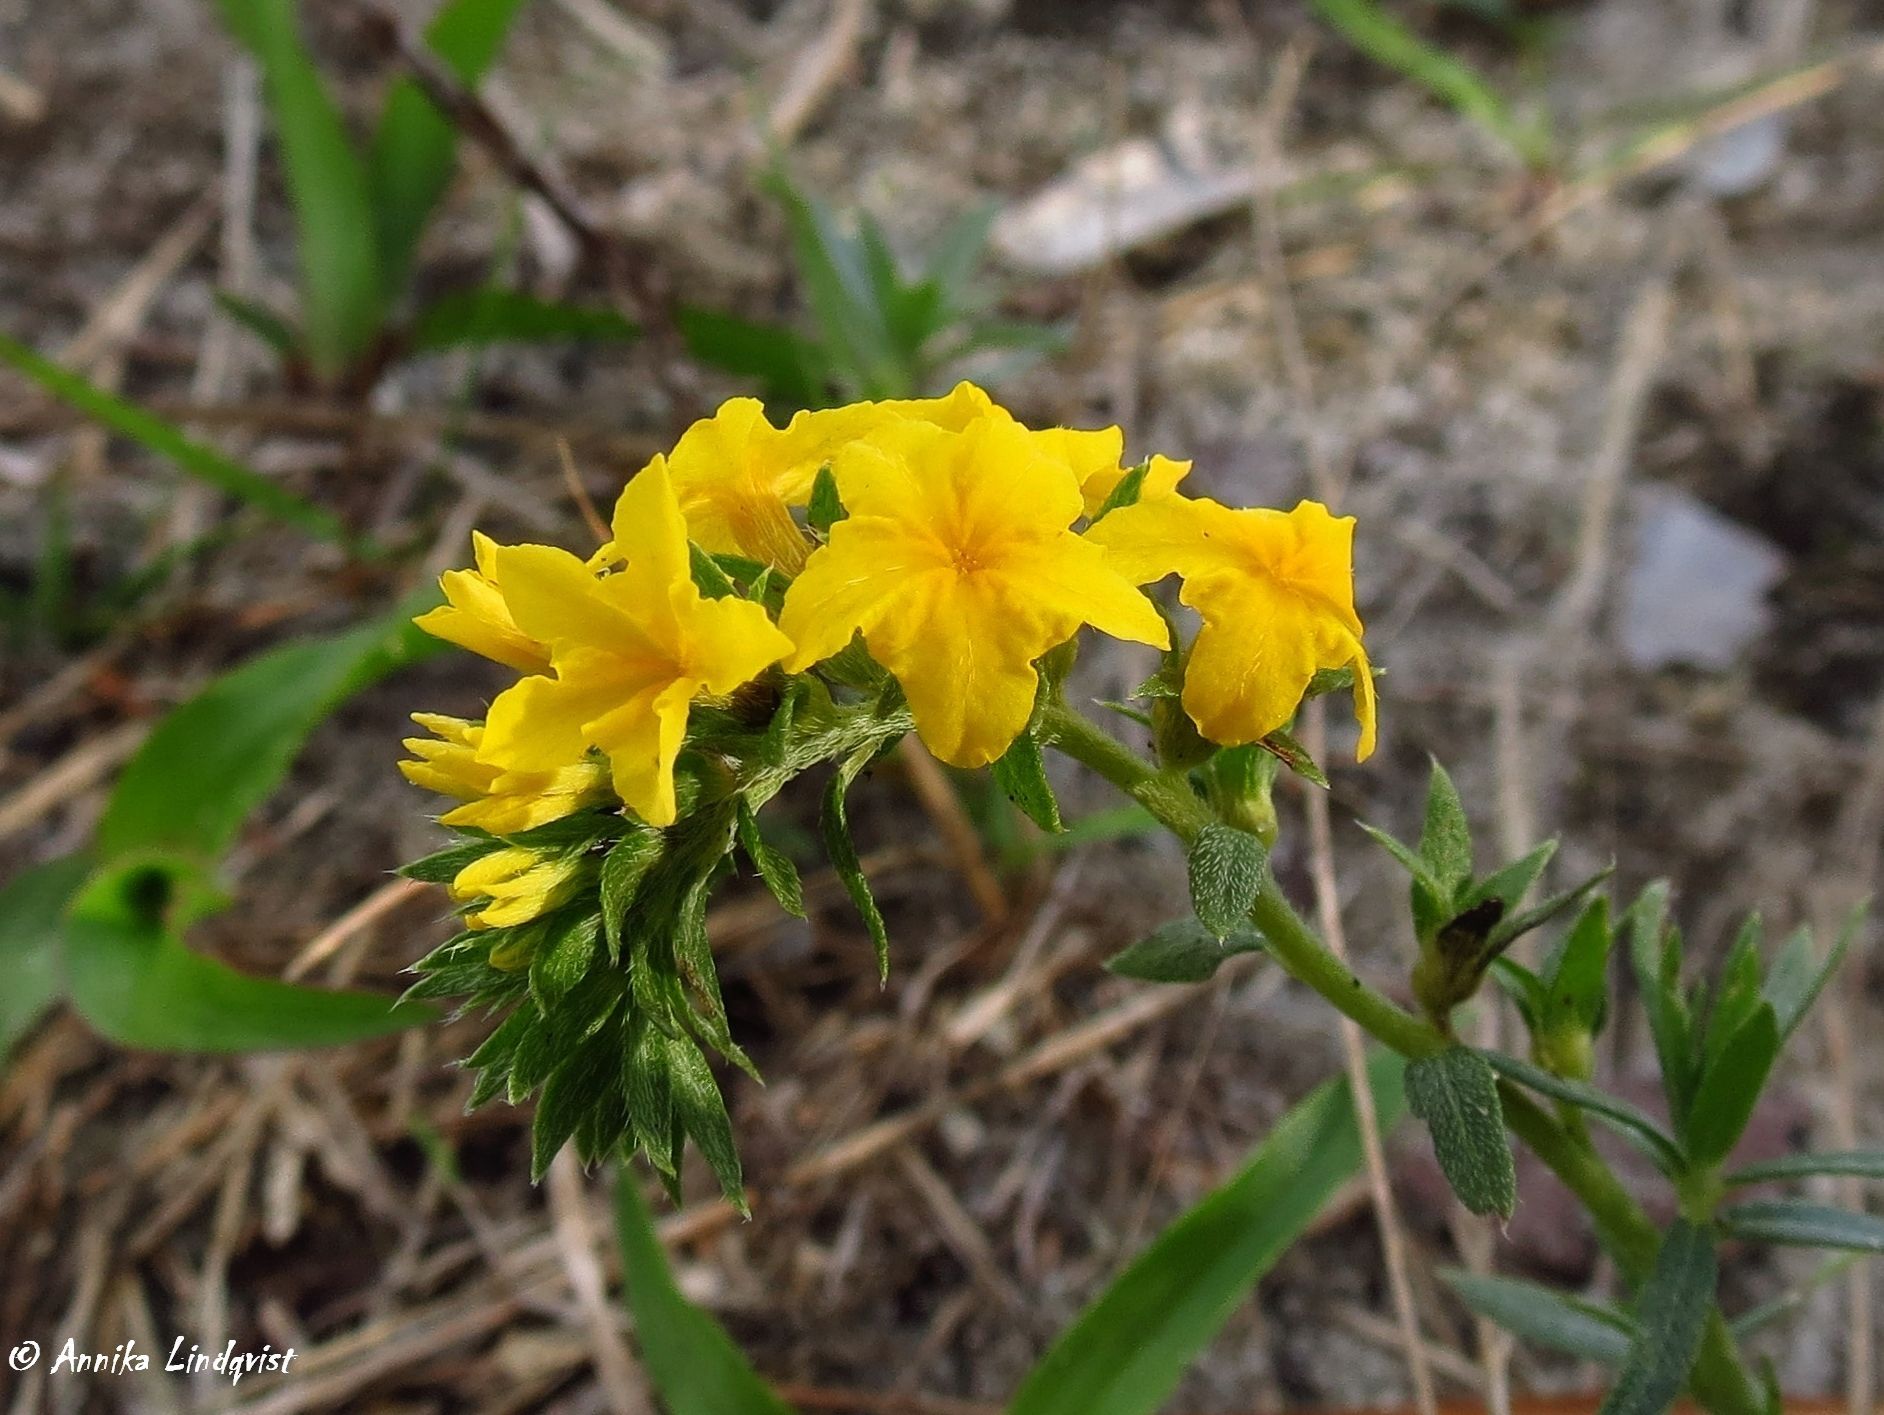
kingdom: Plantae
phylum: Tracheophyta
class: Magnoliopsida
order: Boraginales
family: Heliotropiaceae
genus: Euploca
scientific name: Euploca polyphylla
